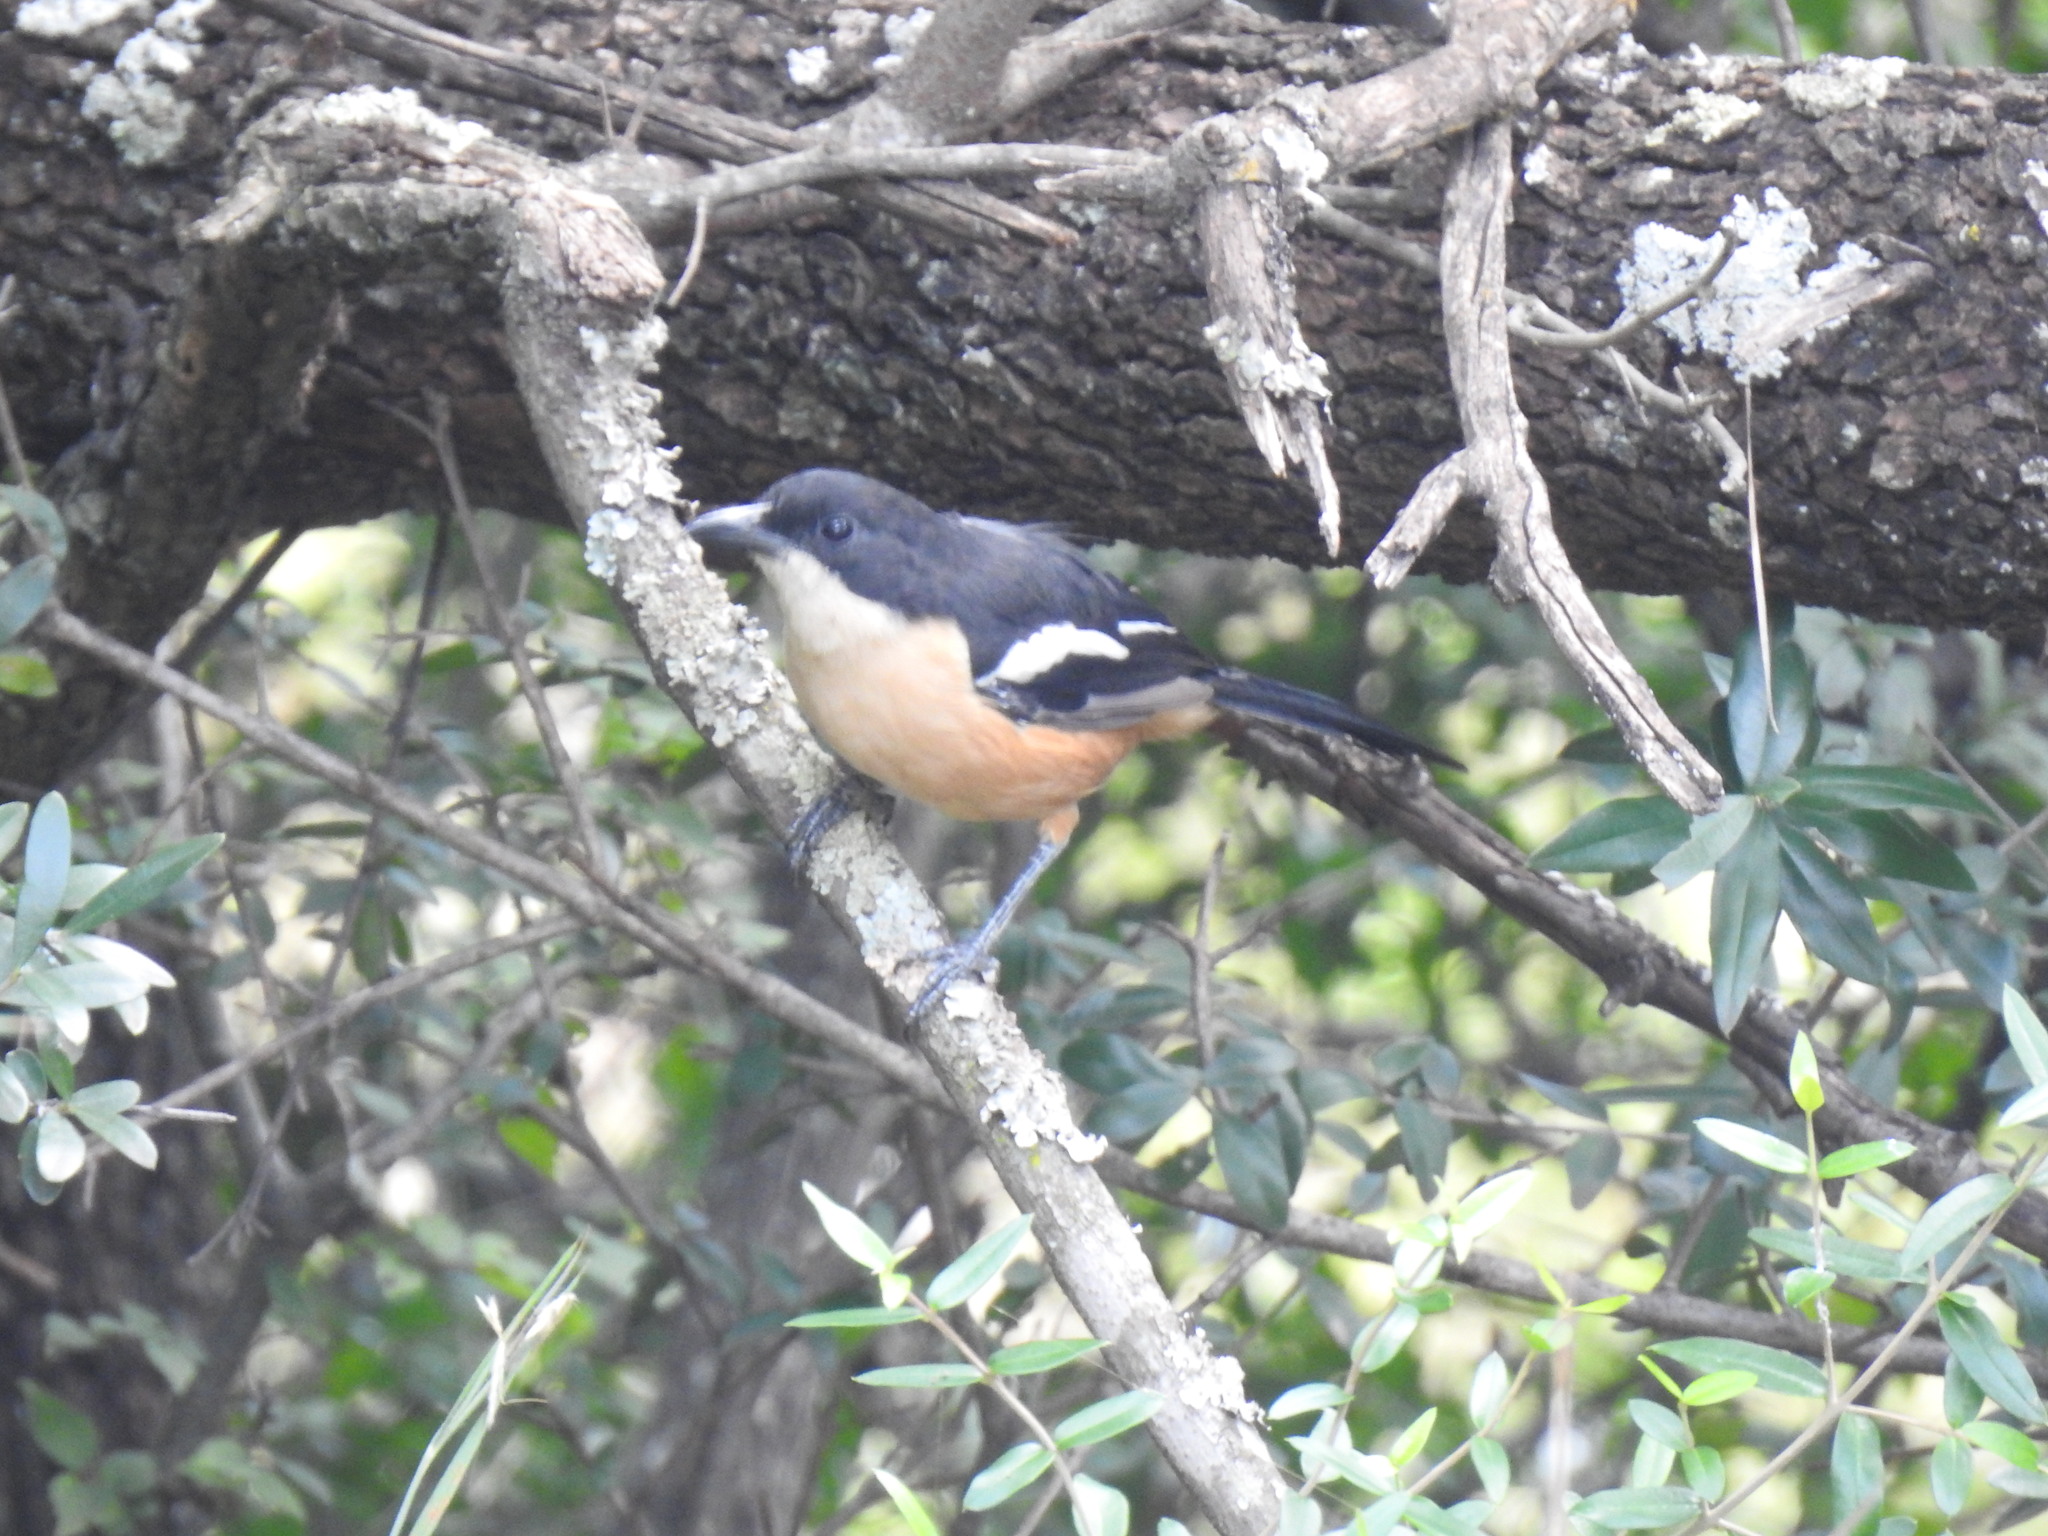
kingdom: Animalia
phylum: Chordata
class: Aves
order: Passeriformes
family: Malaconotidae
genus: Laniarius
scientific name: Laniarius ferrugineus
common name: Southern boubou
